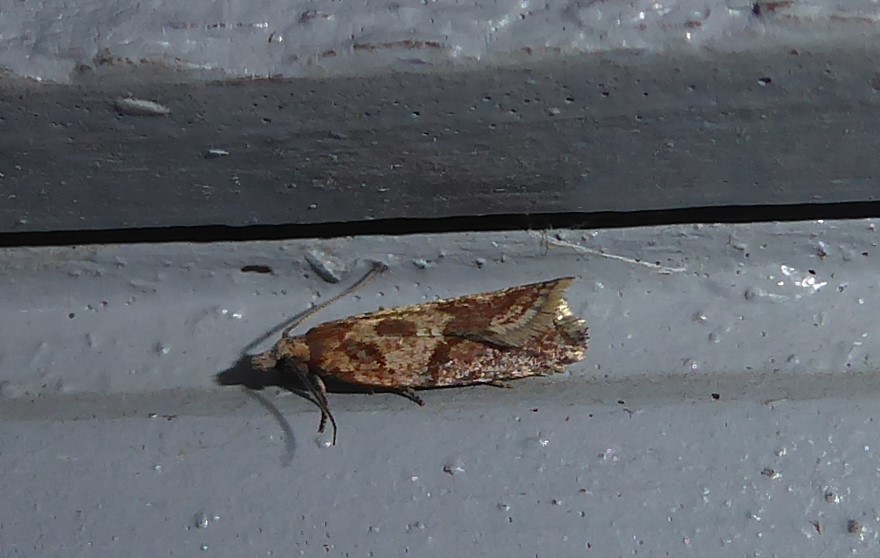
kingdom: Animalia
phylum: Arthropoda
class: Insecta
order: Lepidoptera
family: Tortricidae
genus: Capua
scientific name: Capua semiferana
